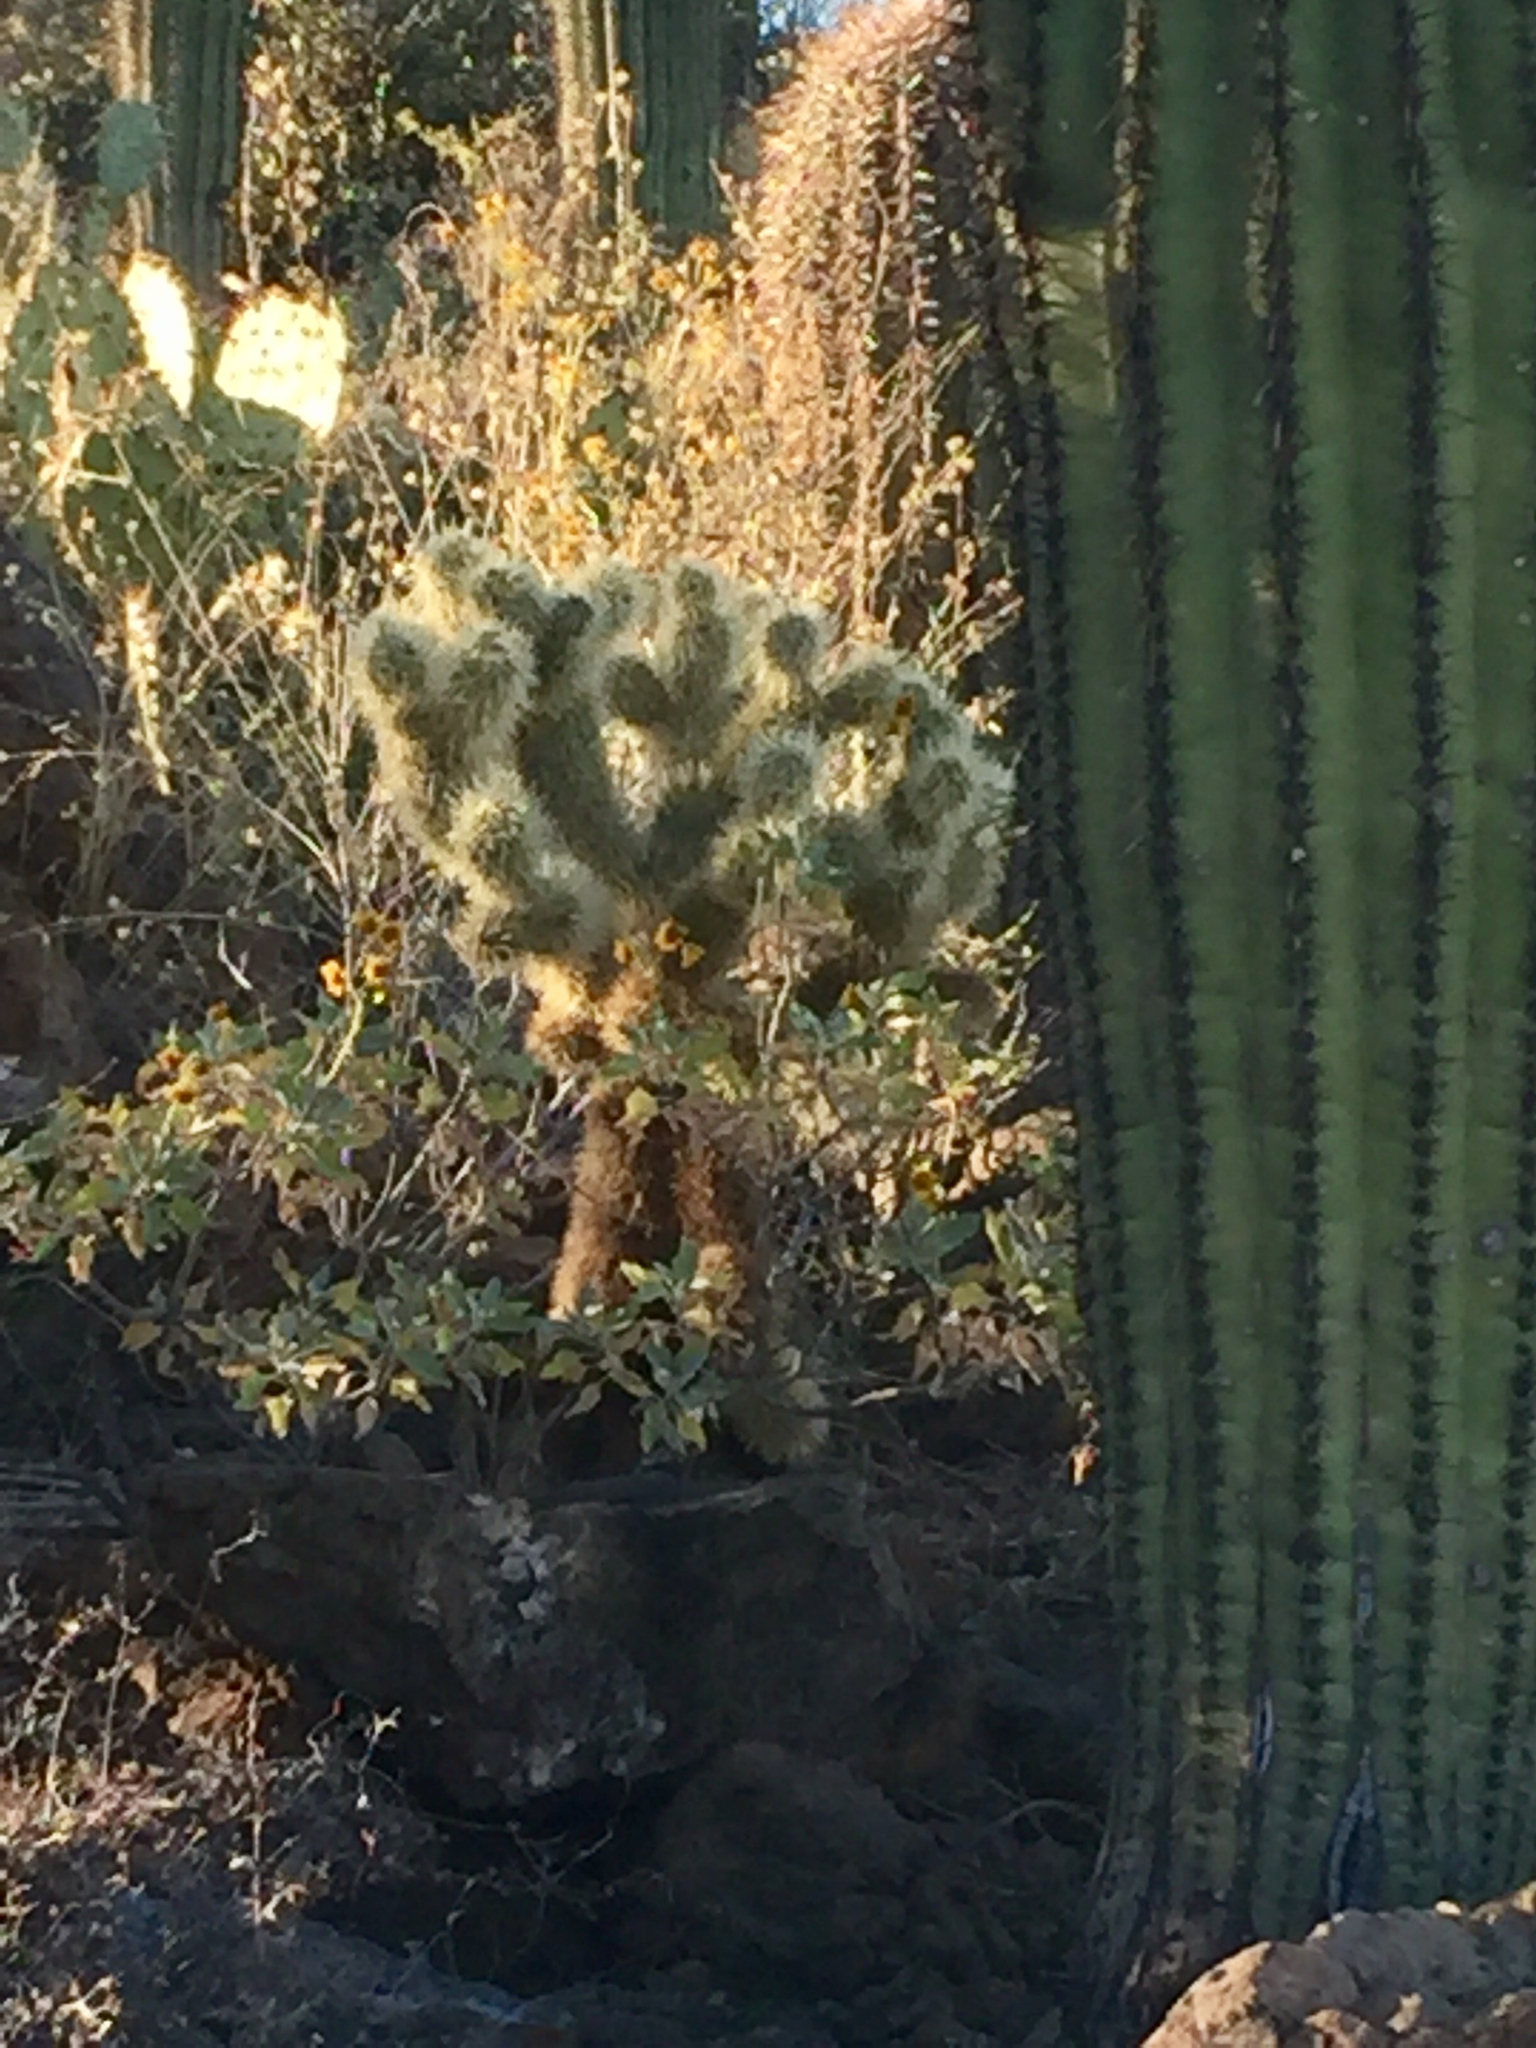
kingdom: Plantae
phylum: Tracheophyta
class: Magnoliopsida
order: Caryophyllales
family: Cactaceae
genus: Cylindropuntia
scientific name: Cylindropuntia fosbergii
